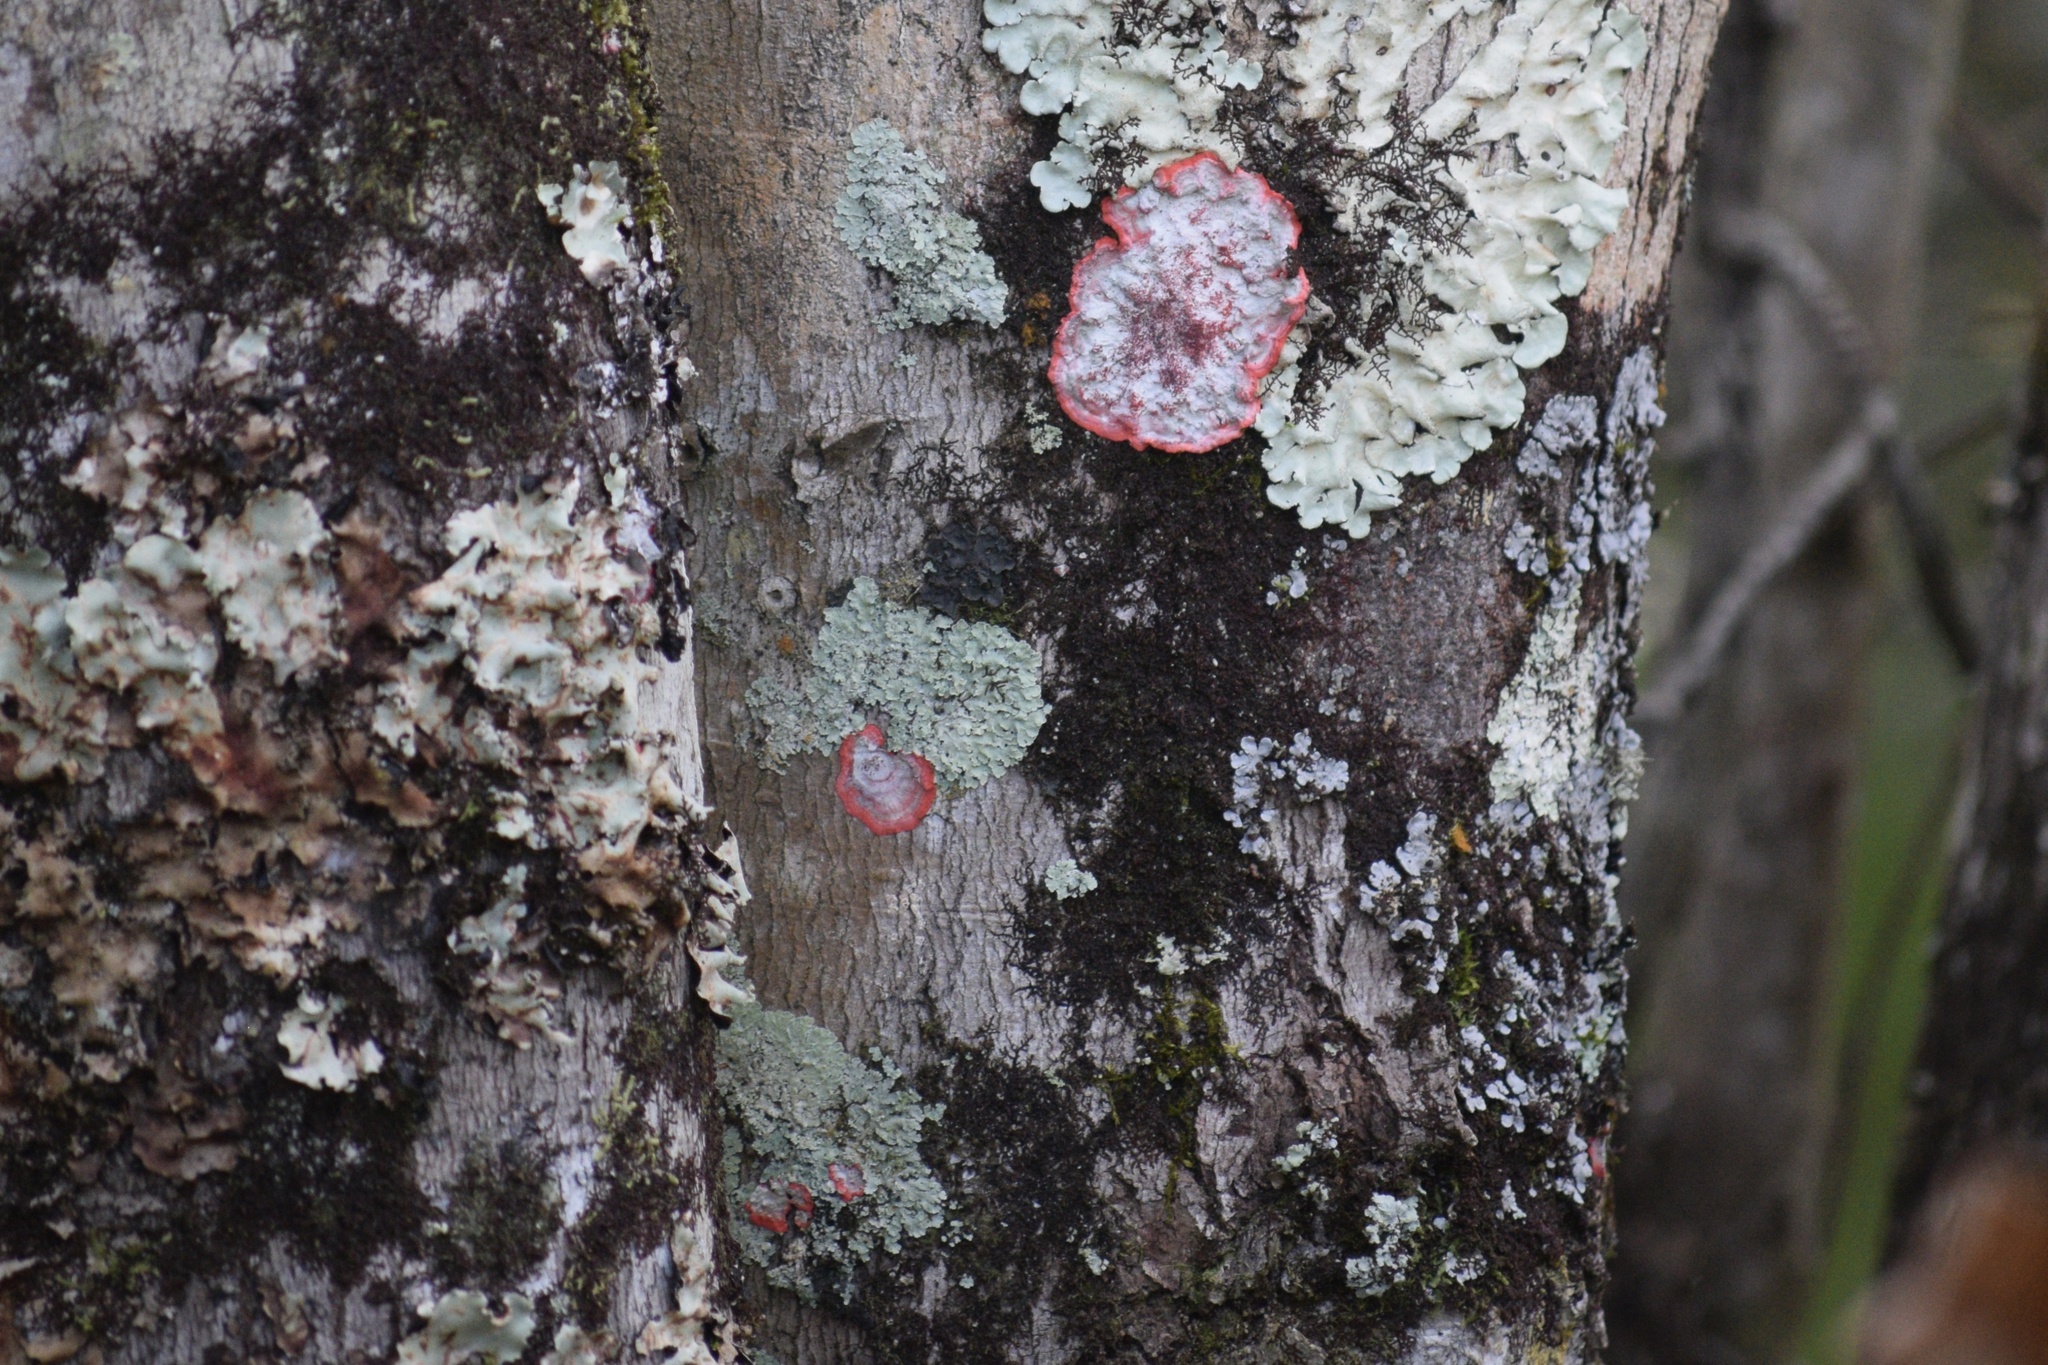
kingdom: Fungi
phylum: Ascomycota
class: Arthoniomycetes
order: Arthoniales
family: Arthoniaceae
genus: Herpothallon
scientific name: Herpothallon rubrocinctum
